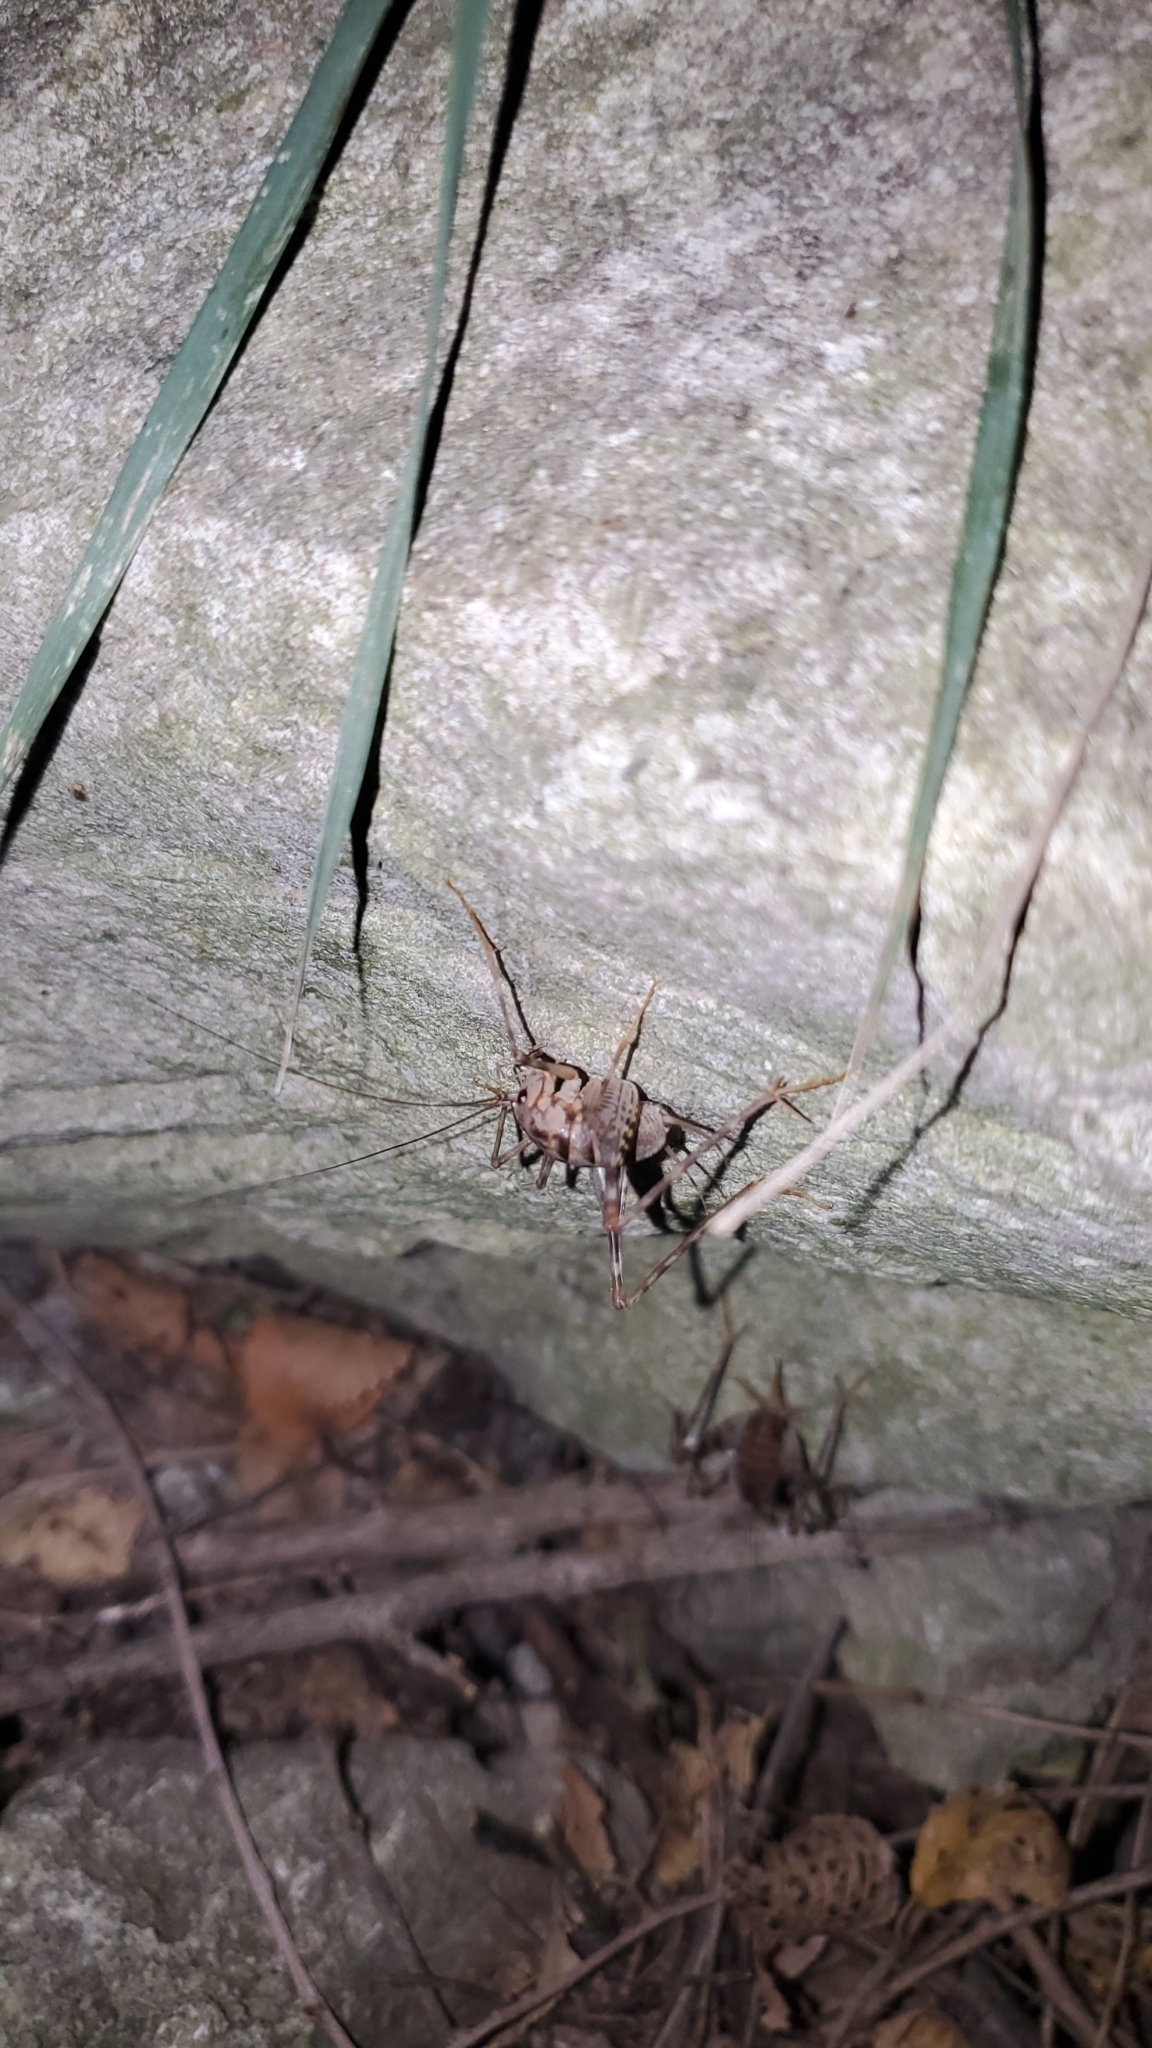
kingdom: Animalia
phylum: Arthropoda
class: Insecta
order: Orthoptera
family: Rhaphidophoridae
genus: Tachycines
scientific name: Tachycines asynamorus
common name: Greenhouse camel cricket
